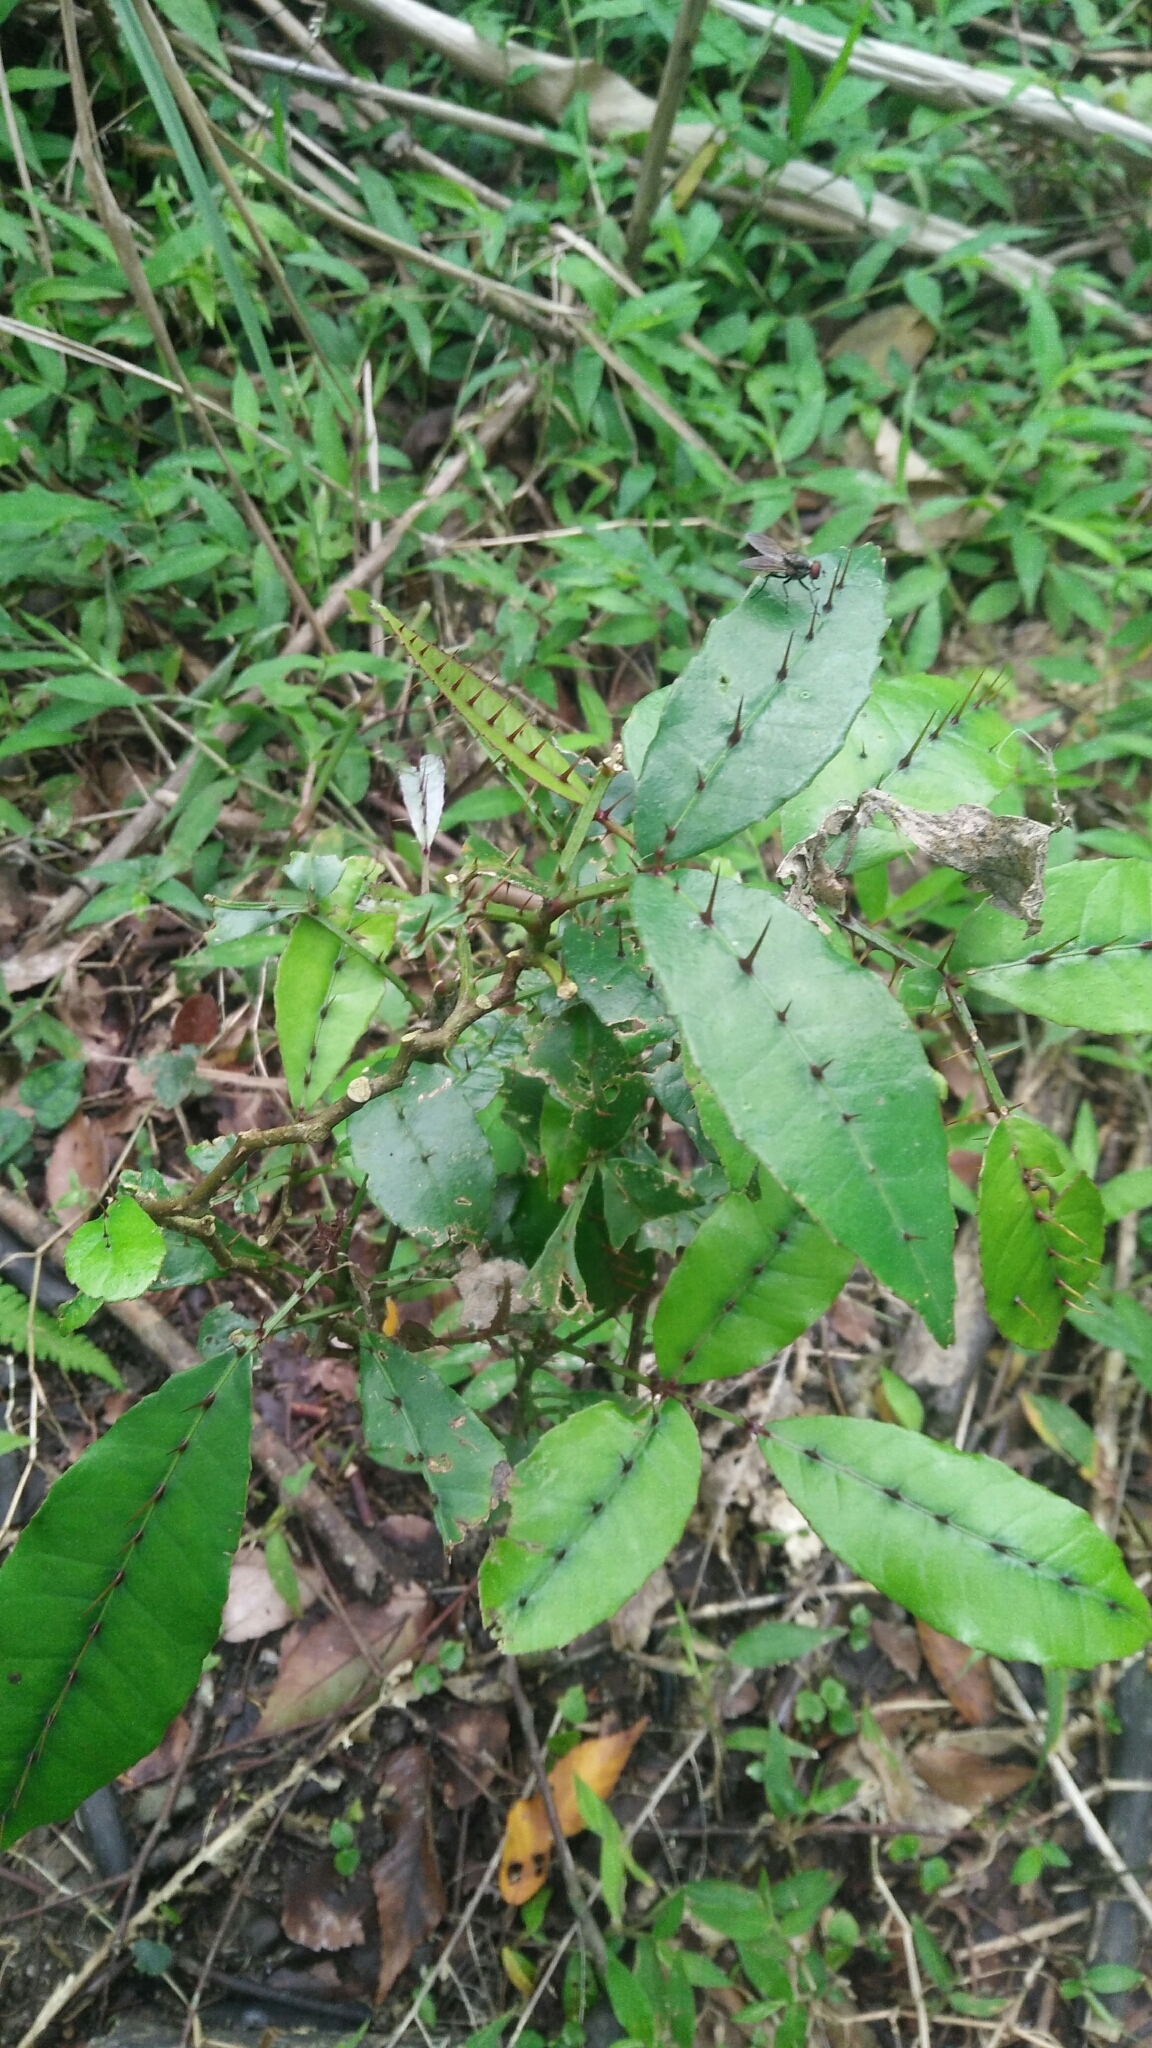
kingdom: Plantae
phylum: Tracheophyta
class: Magnoliopsida
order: Sapindales
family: Rutaceae
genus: Zanthoxylum
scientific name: Zanthoxylum nitidum
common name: Shiny-leaf prickly-ash
